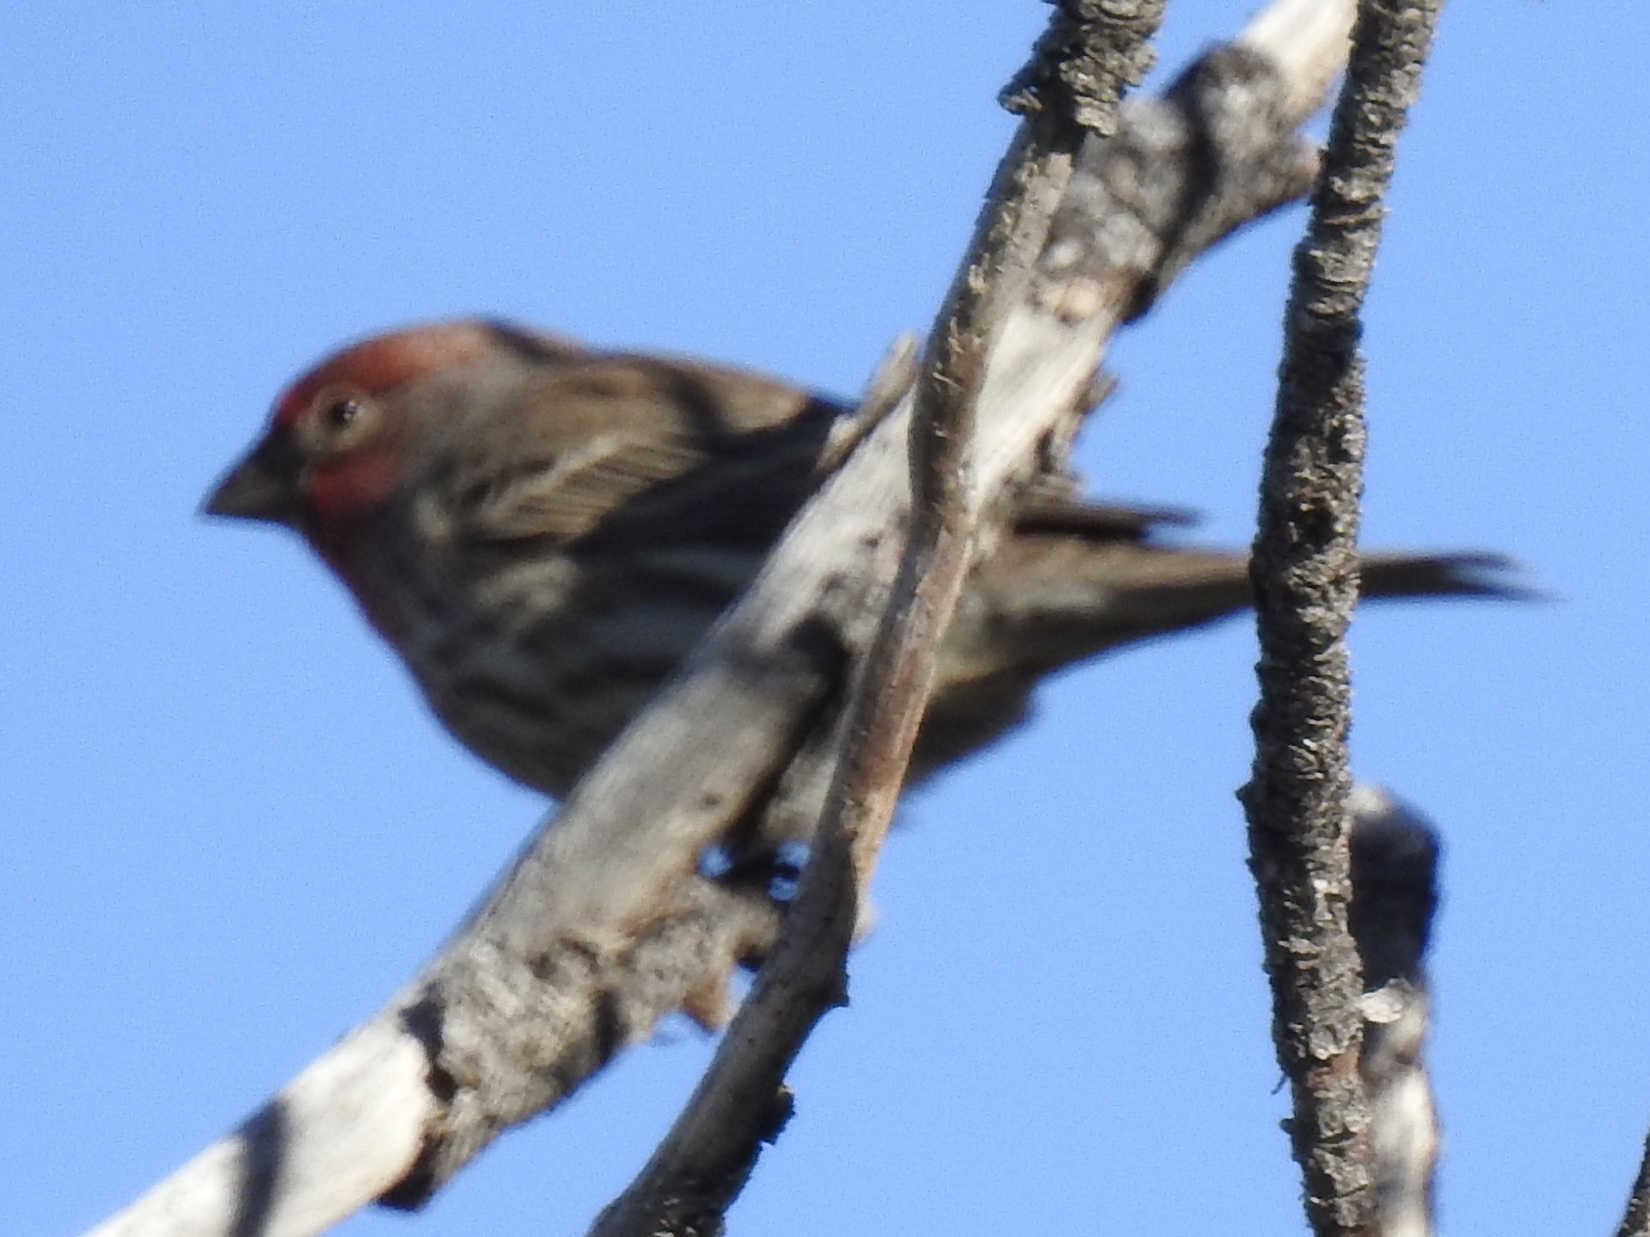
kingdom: Animalia
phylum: Chordata
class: Aves
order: Passeriformes
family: Fringillidae
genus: Haemorhous
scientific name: Haemorhous mexicanus
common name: House finch
